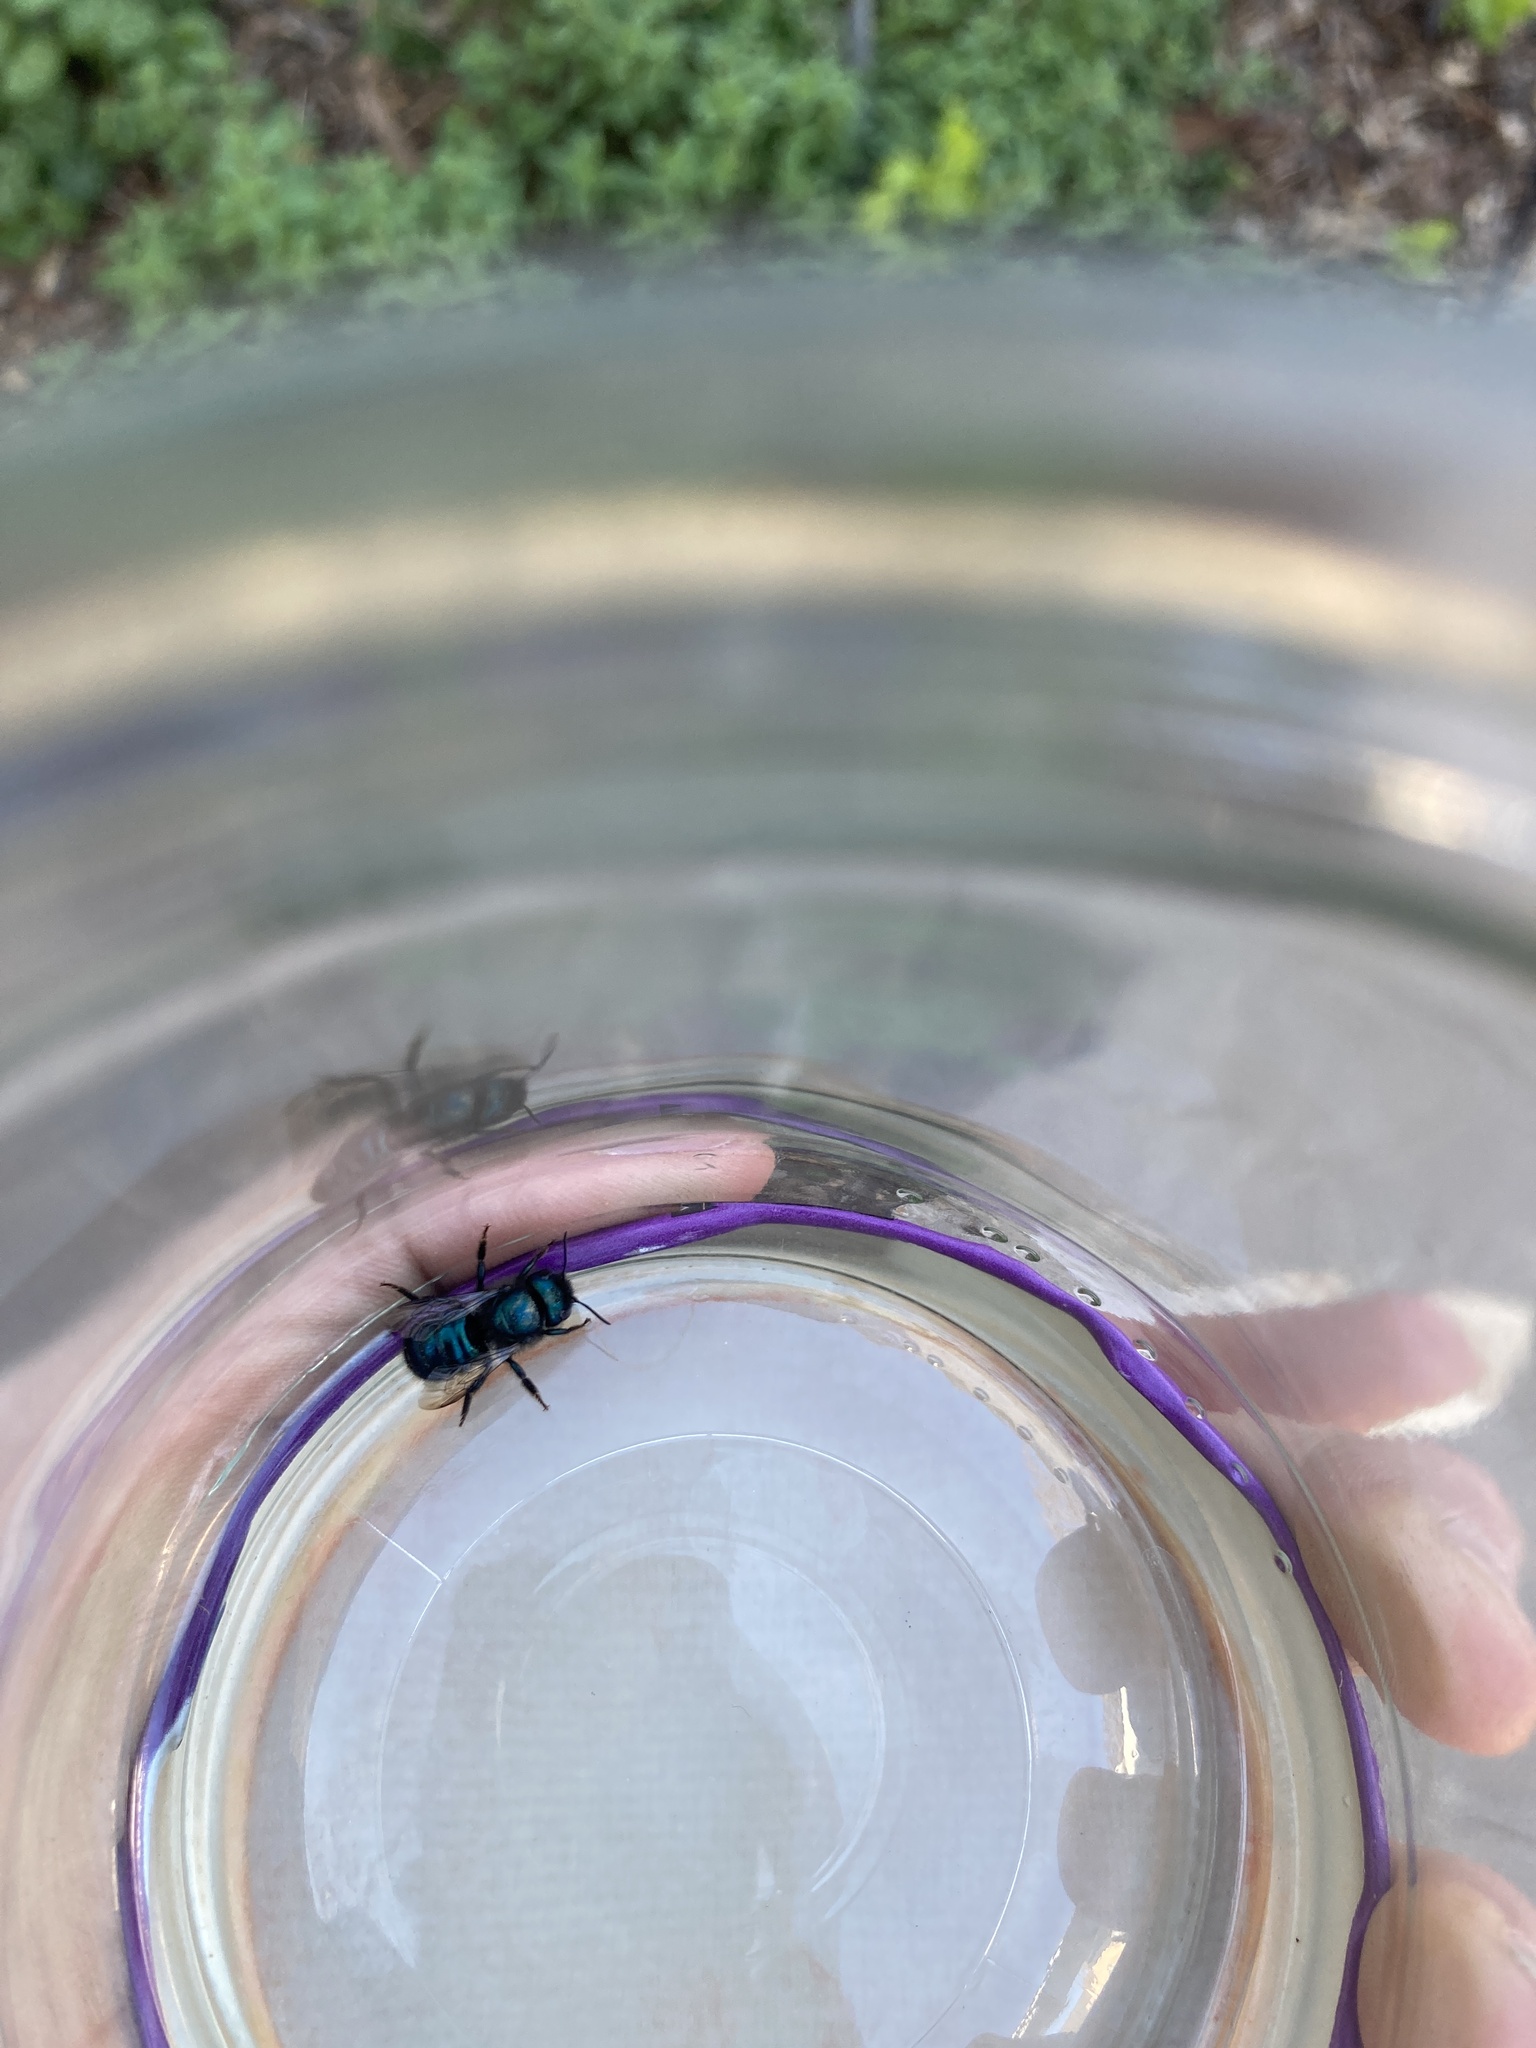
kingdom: Animalia
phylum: Arthropoda
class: Insecta
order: Hymenoptera
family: Megachilidae
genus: Osmia
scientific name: Osmia ribifloris
